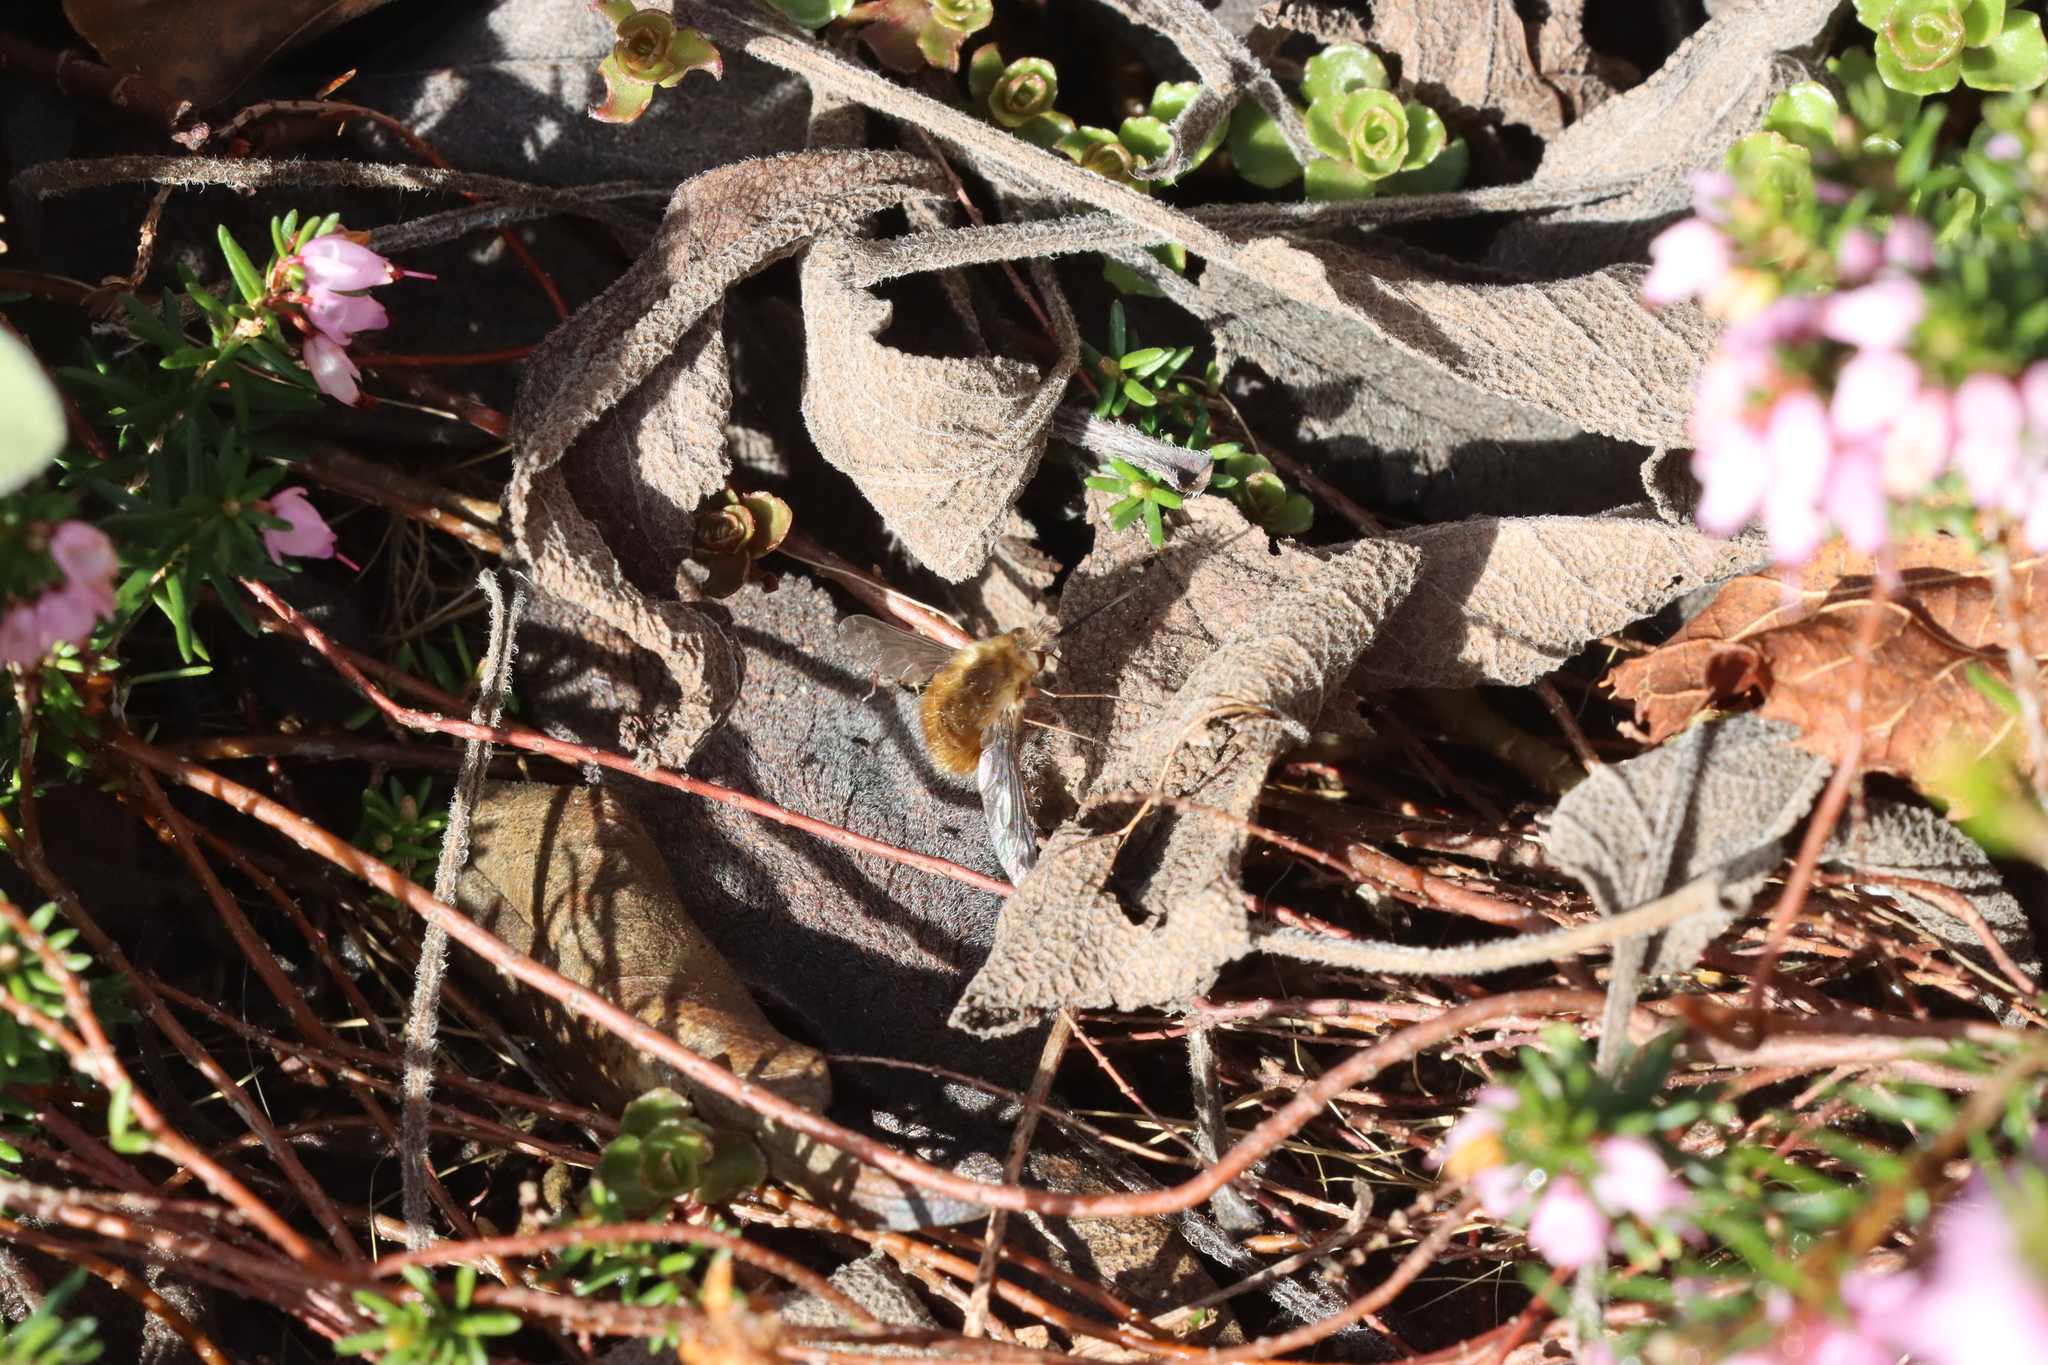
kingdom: Animalia
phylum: Arthropoda
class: Insecta
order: Diptera
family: Bombyliidae
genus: Bombylius
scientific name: Bombylius major
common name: Bee fly
